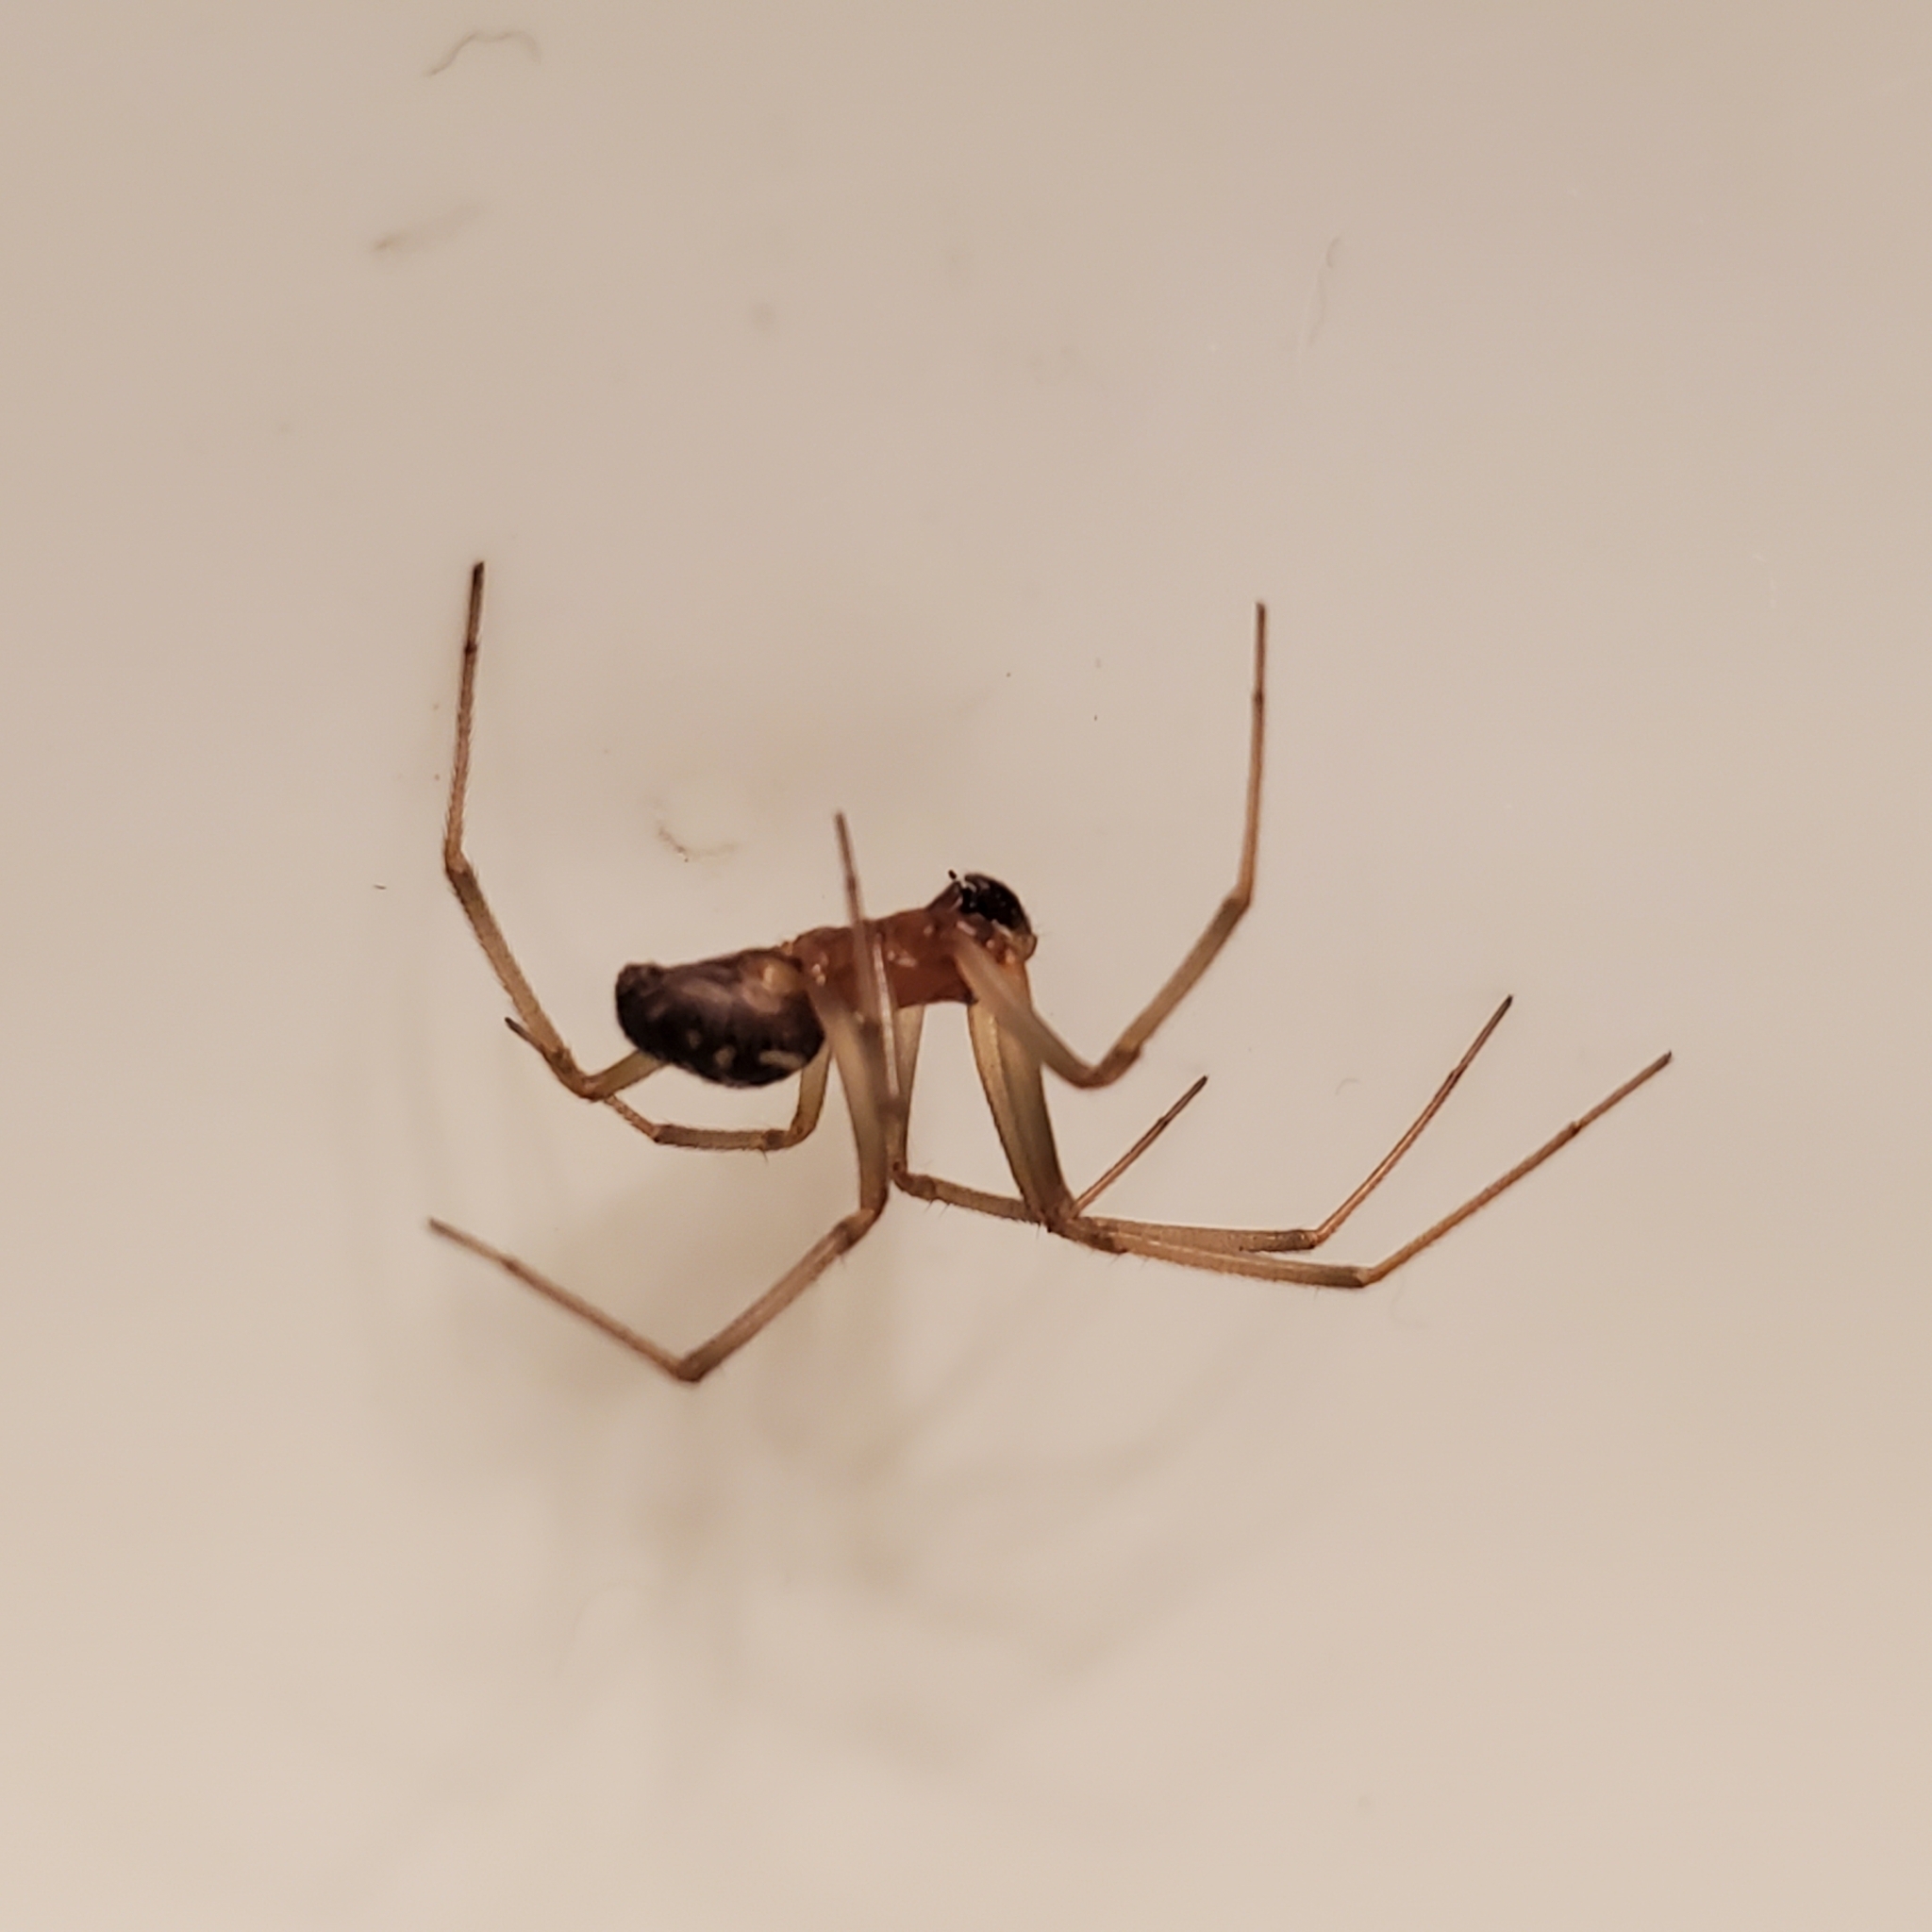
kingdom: Animalia
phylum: Arthropoda
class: Arachnida
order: Araneae
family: Theridiidae
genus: Steatoda
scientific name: Steatoda grossa
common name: False black widow
